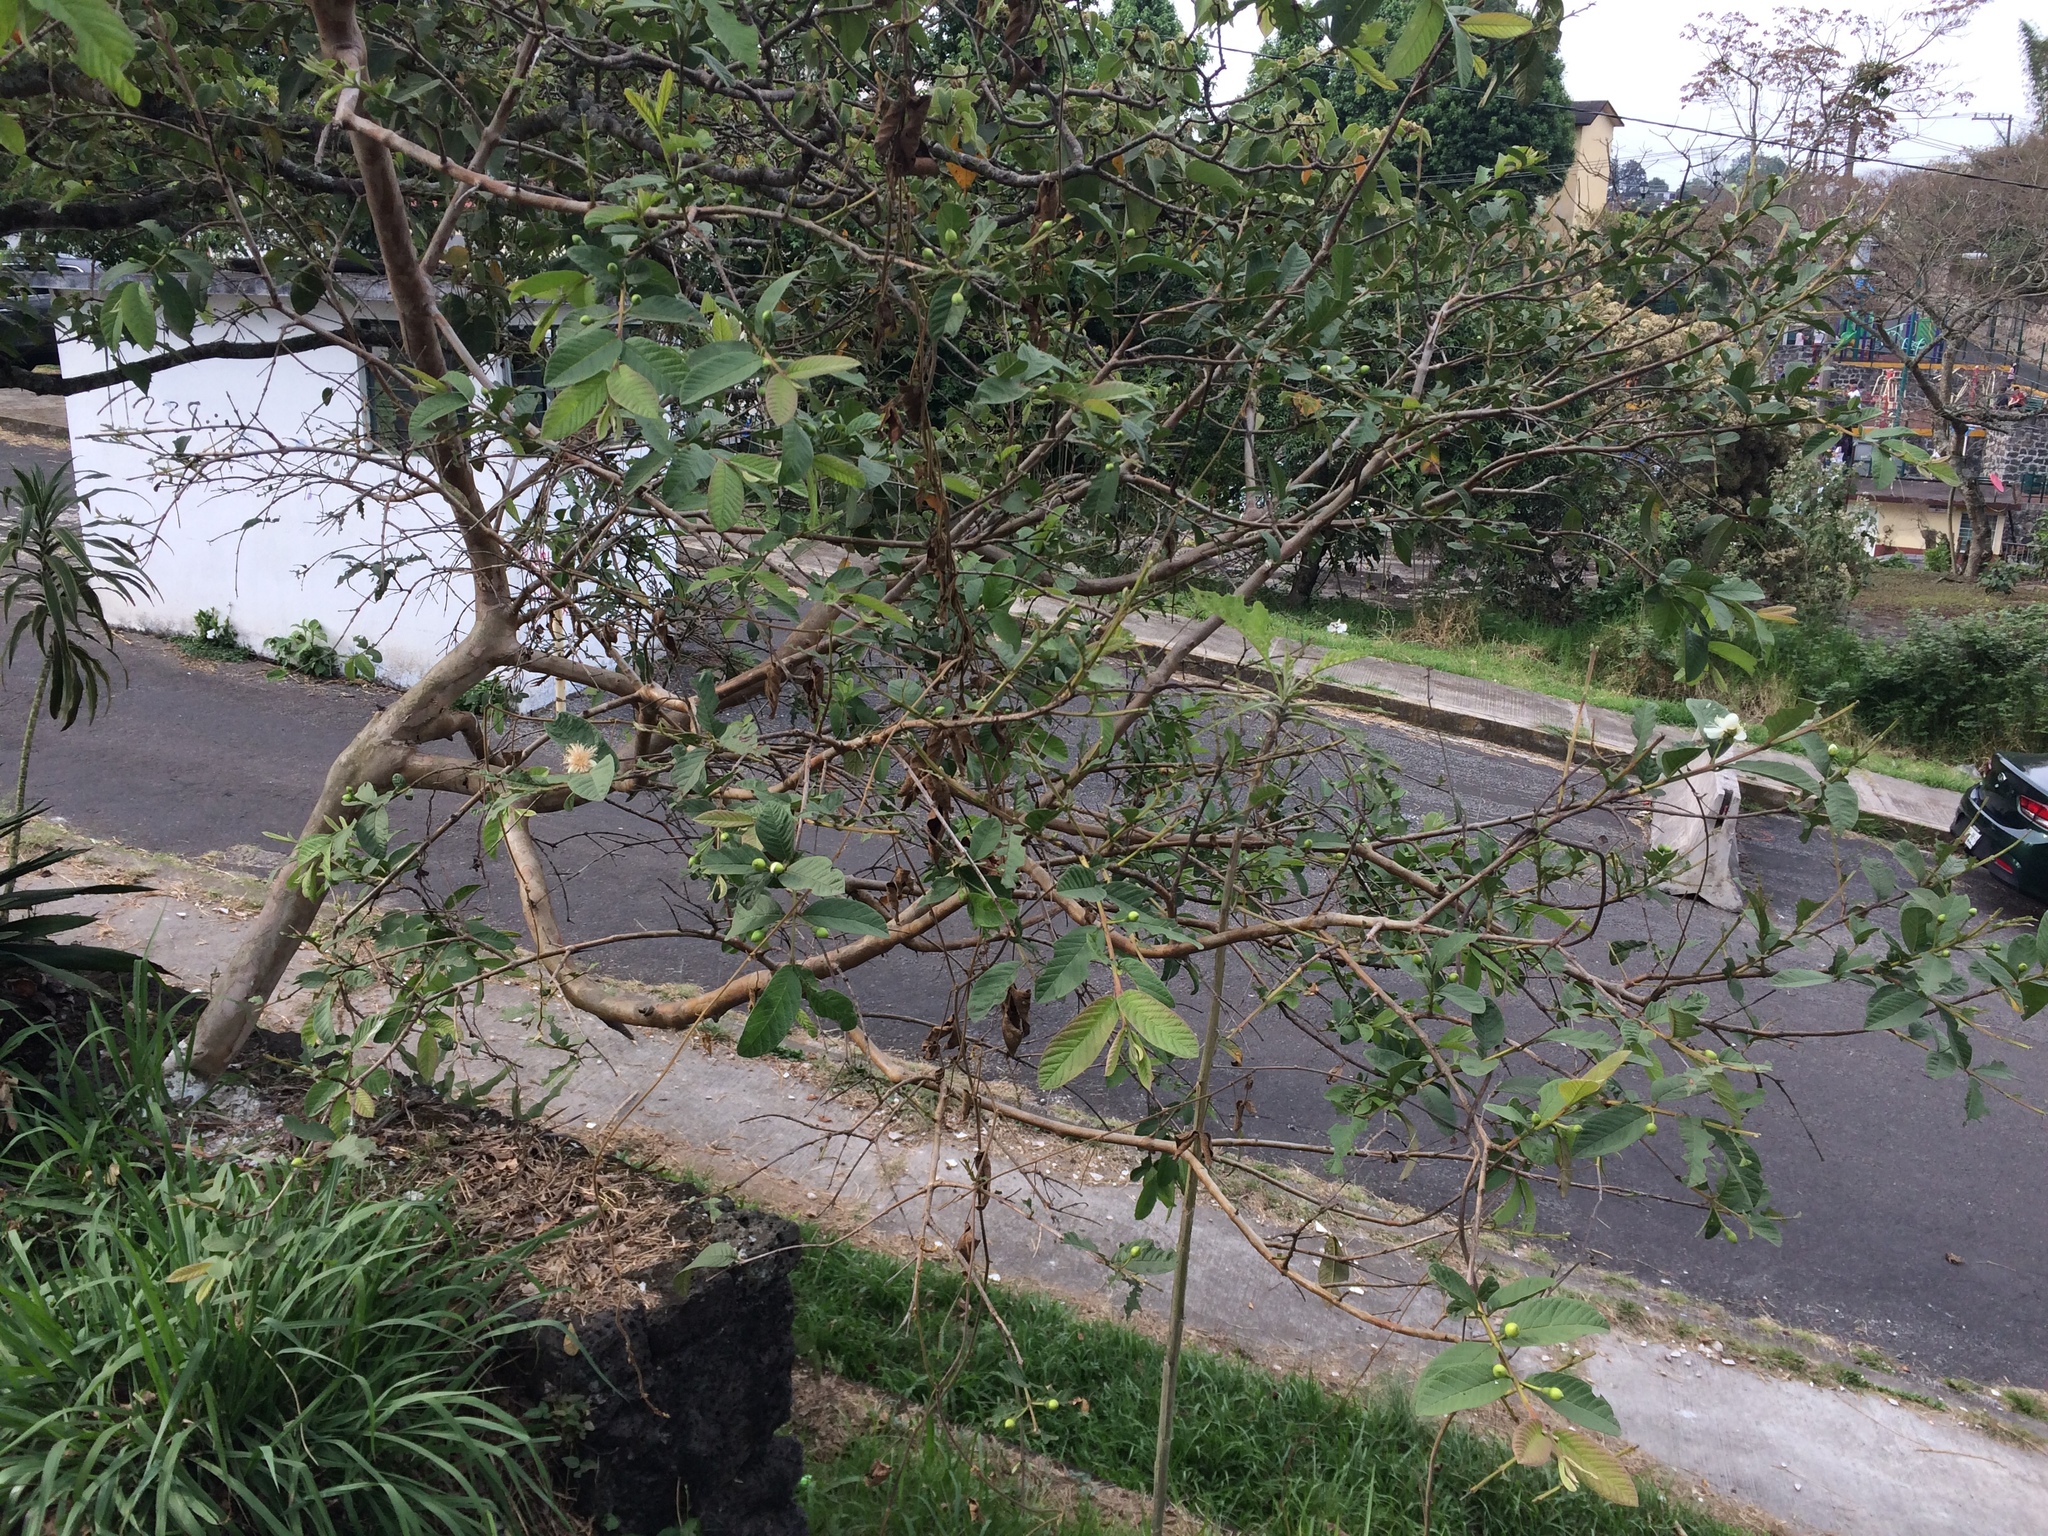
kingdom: Plantae
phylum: Tracheophyta
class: Magnoliopsida
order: Myrtales
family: Myrtaceae
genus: Psidium
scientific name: Psidium guajava
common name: Guava
